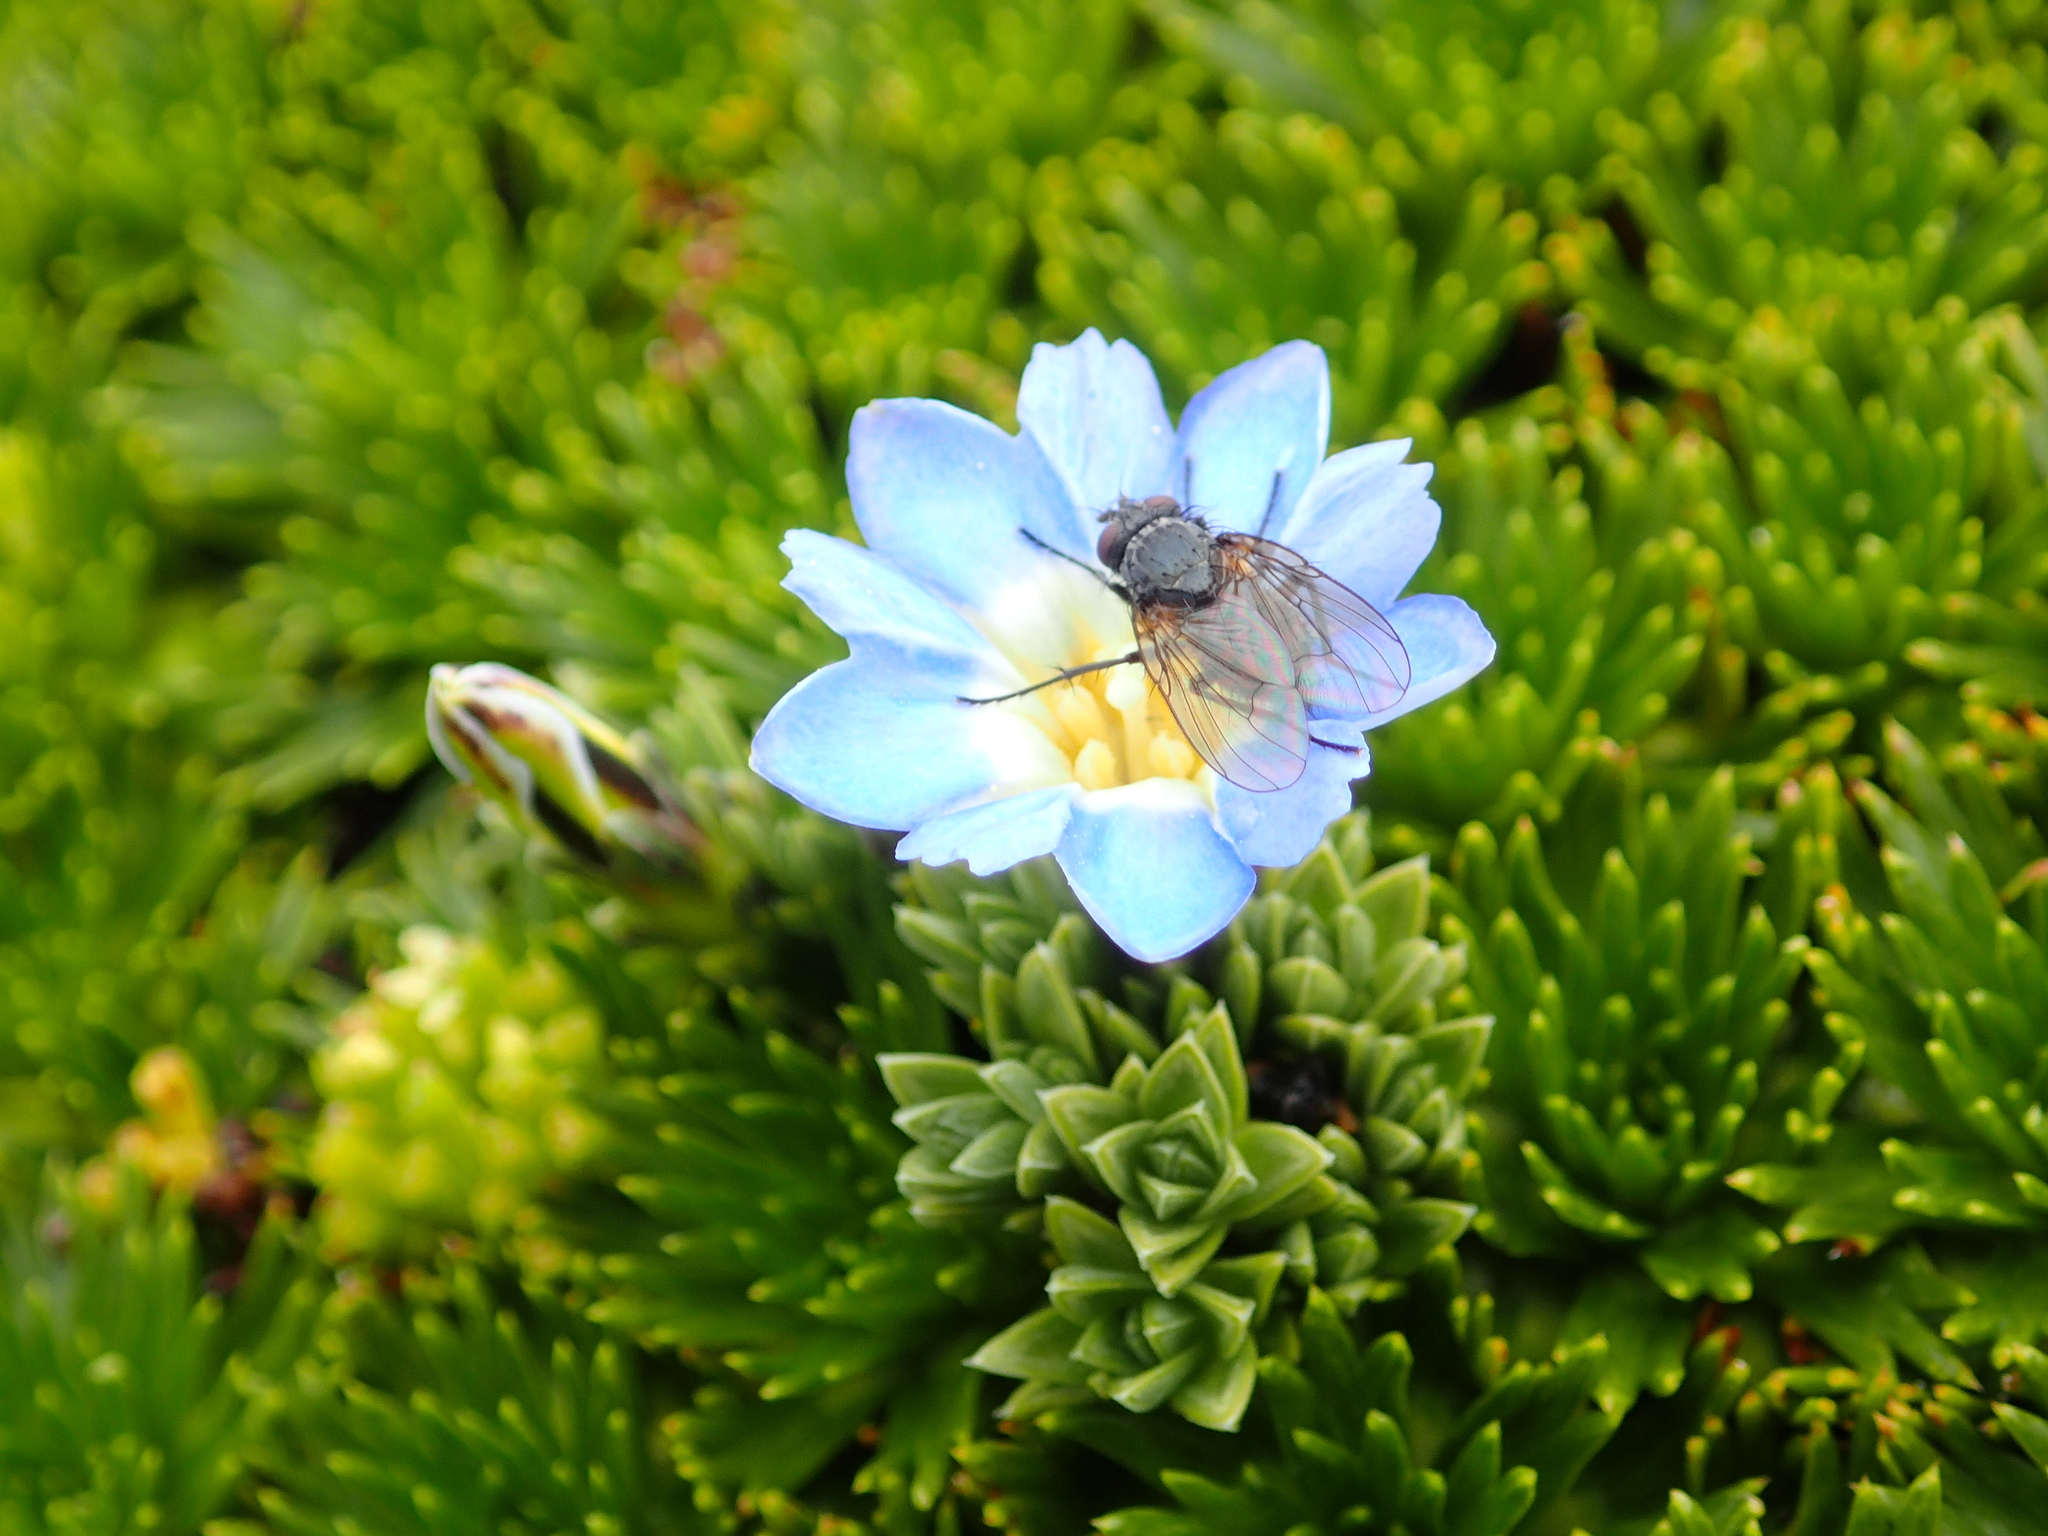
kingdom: Plantae
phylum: Tracheophyta
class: Magnoliopsida
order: Gentianales
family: Gentianaceae
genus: Gentiana
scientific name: Gentiana sedifolia
